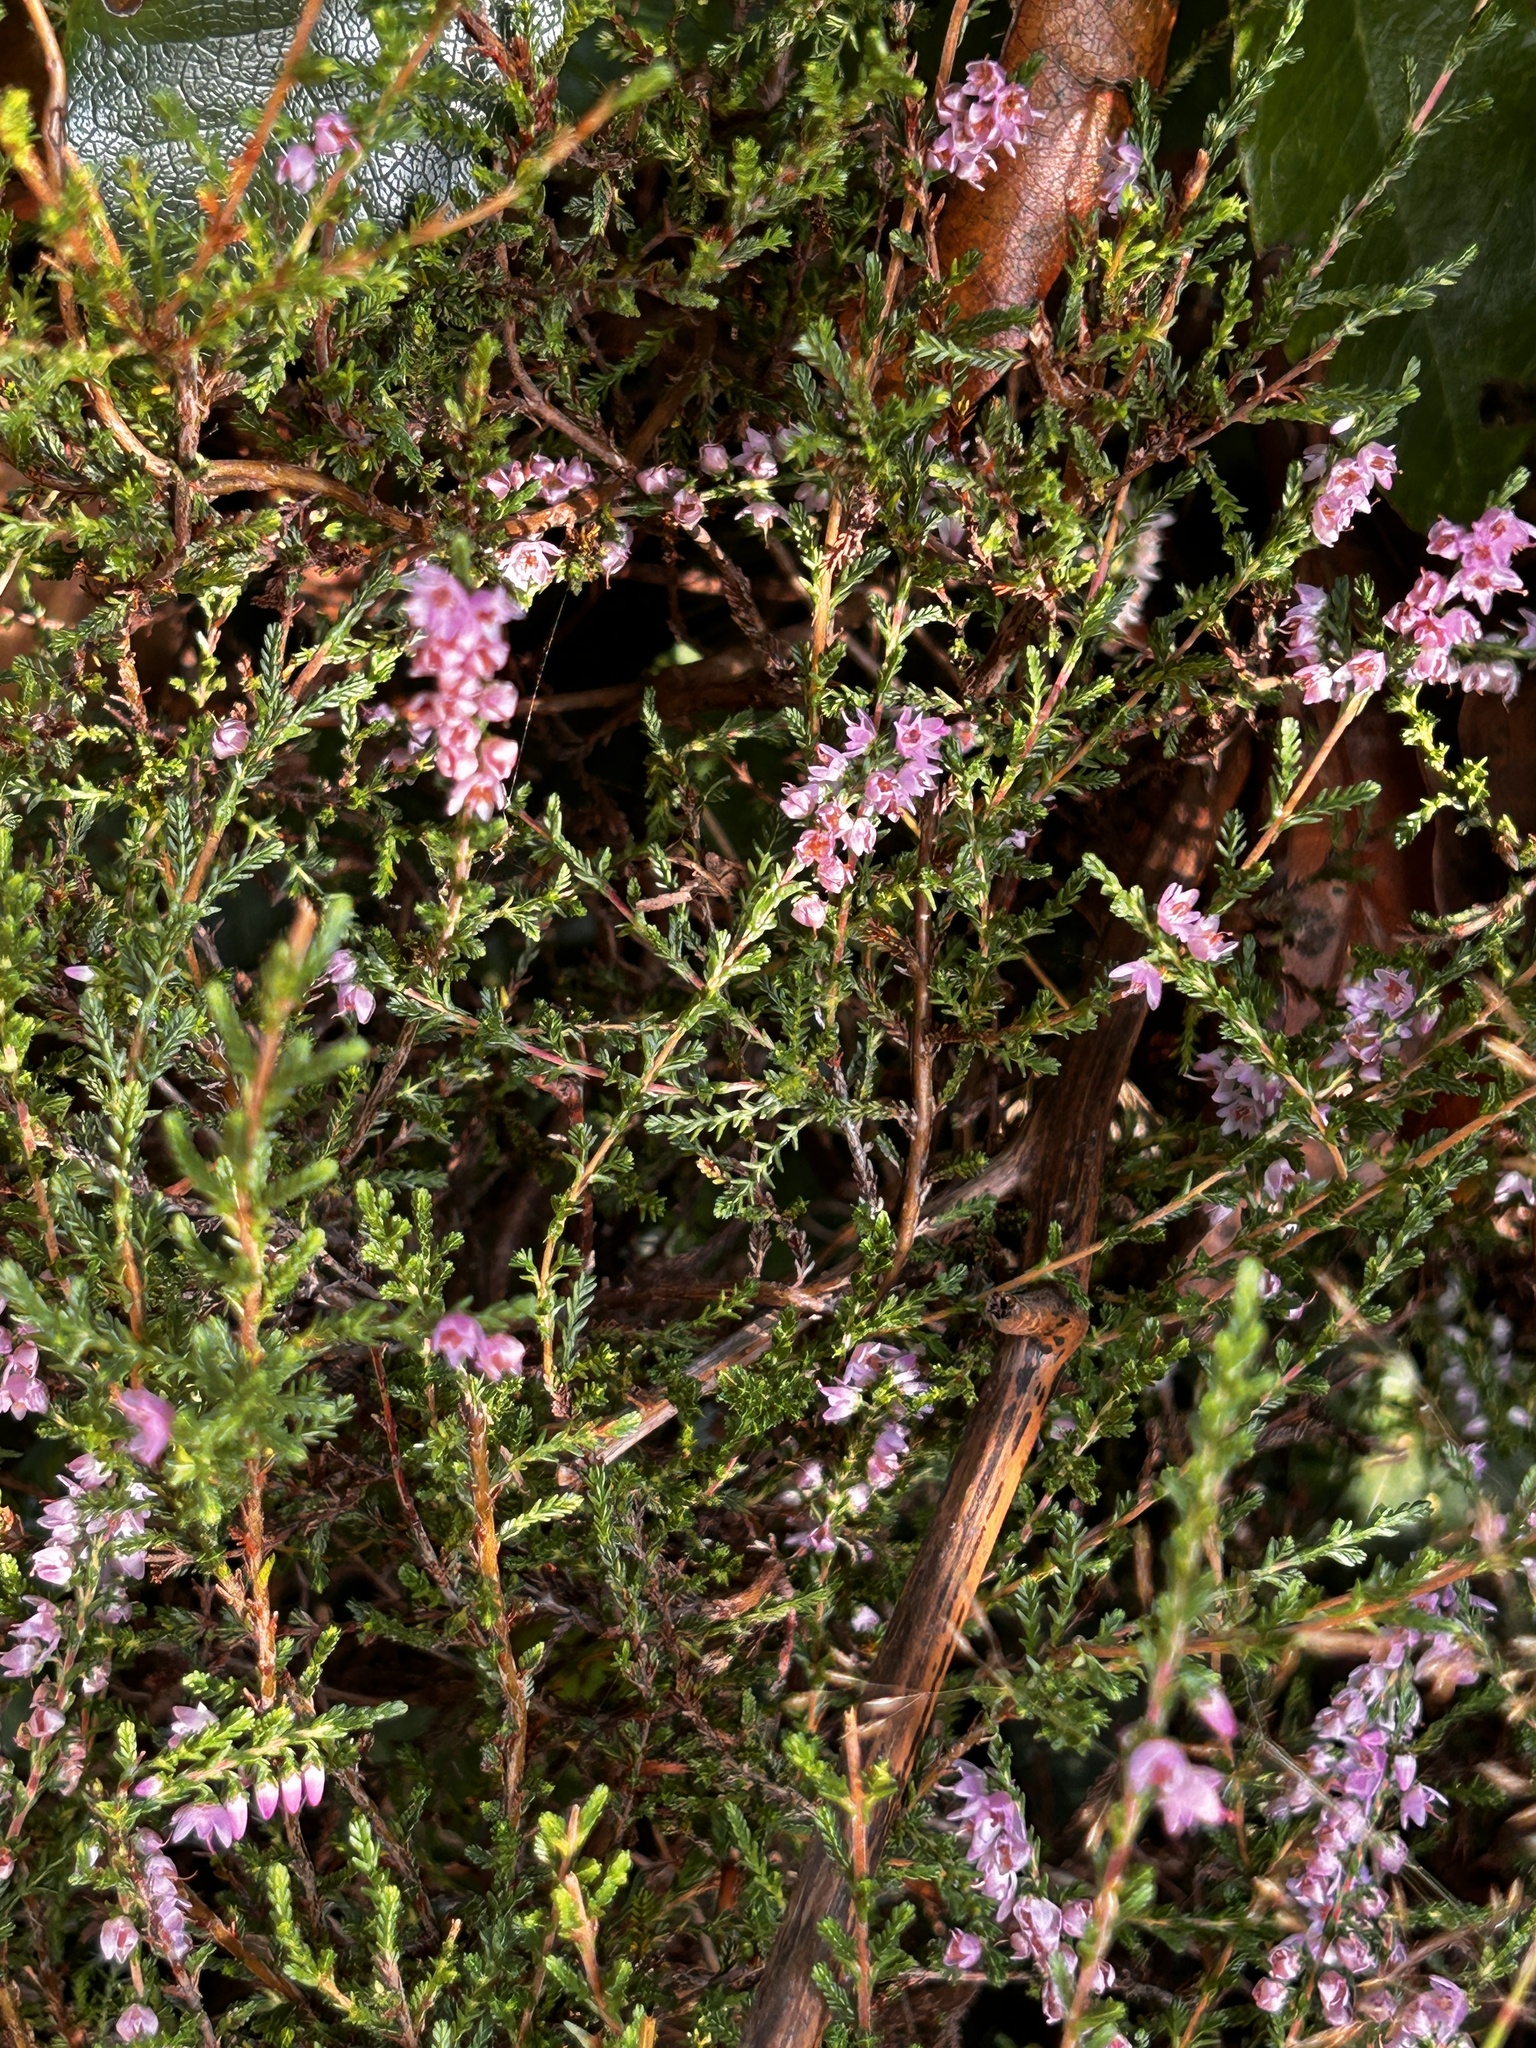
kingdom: Plantae
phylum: Tracheophyta
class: Magnoliopsida
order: Ericales
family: Ericaceae
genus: Calluna
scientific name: Calluna vulgaris
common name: Heather
